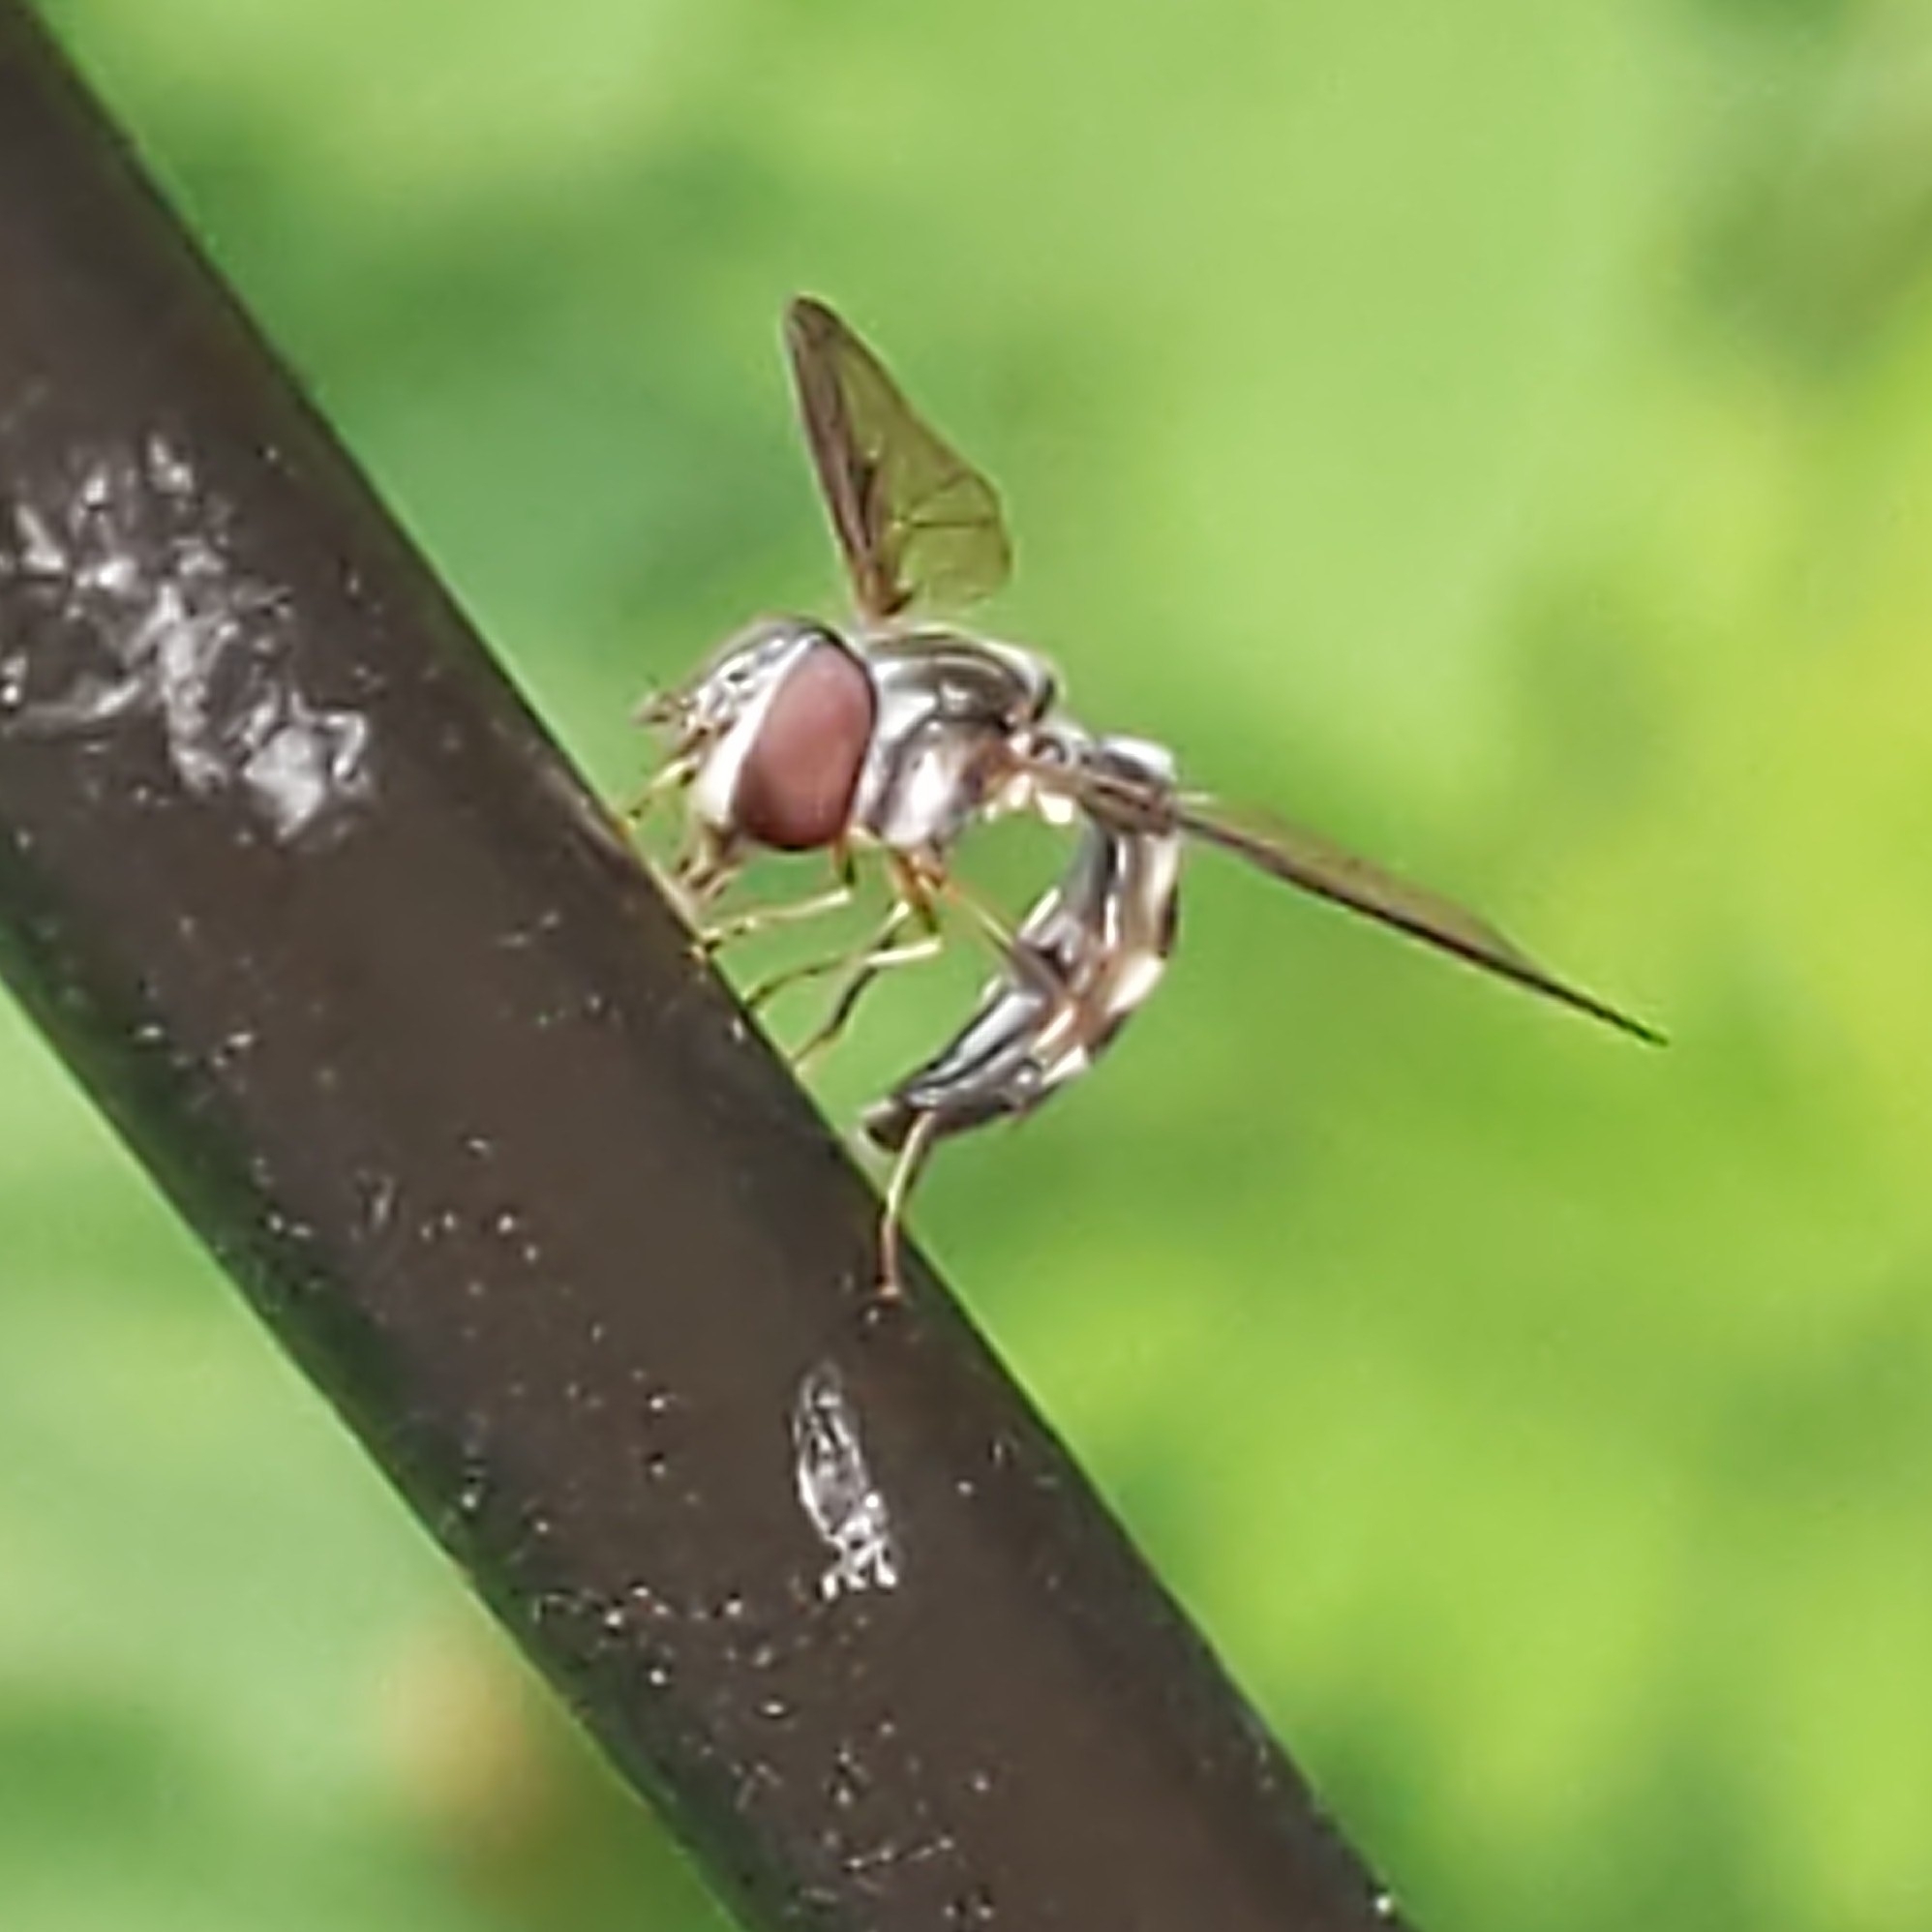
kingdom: Animalia
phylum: Arthropoda
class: Insecta
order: Diptera
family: Syrphidae
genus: Ocyptamus
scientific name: Ocyptamus costatus
